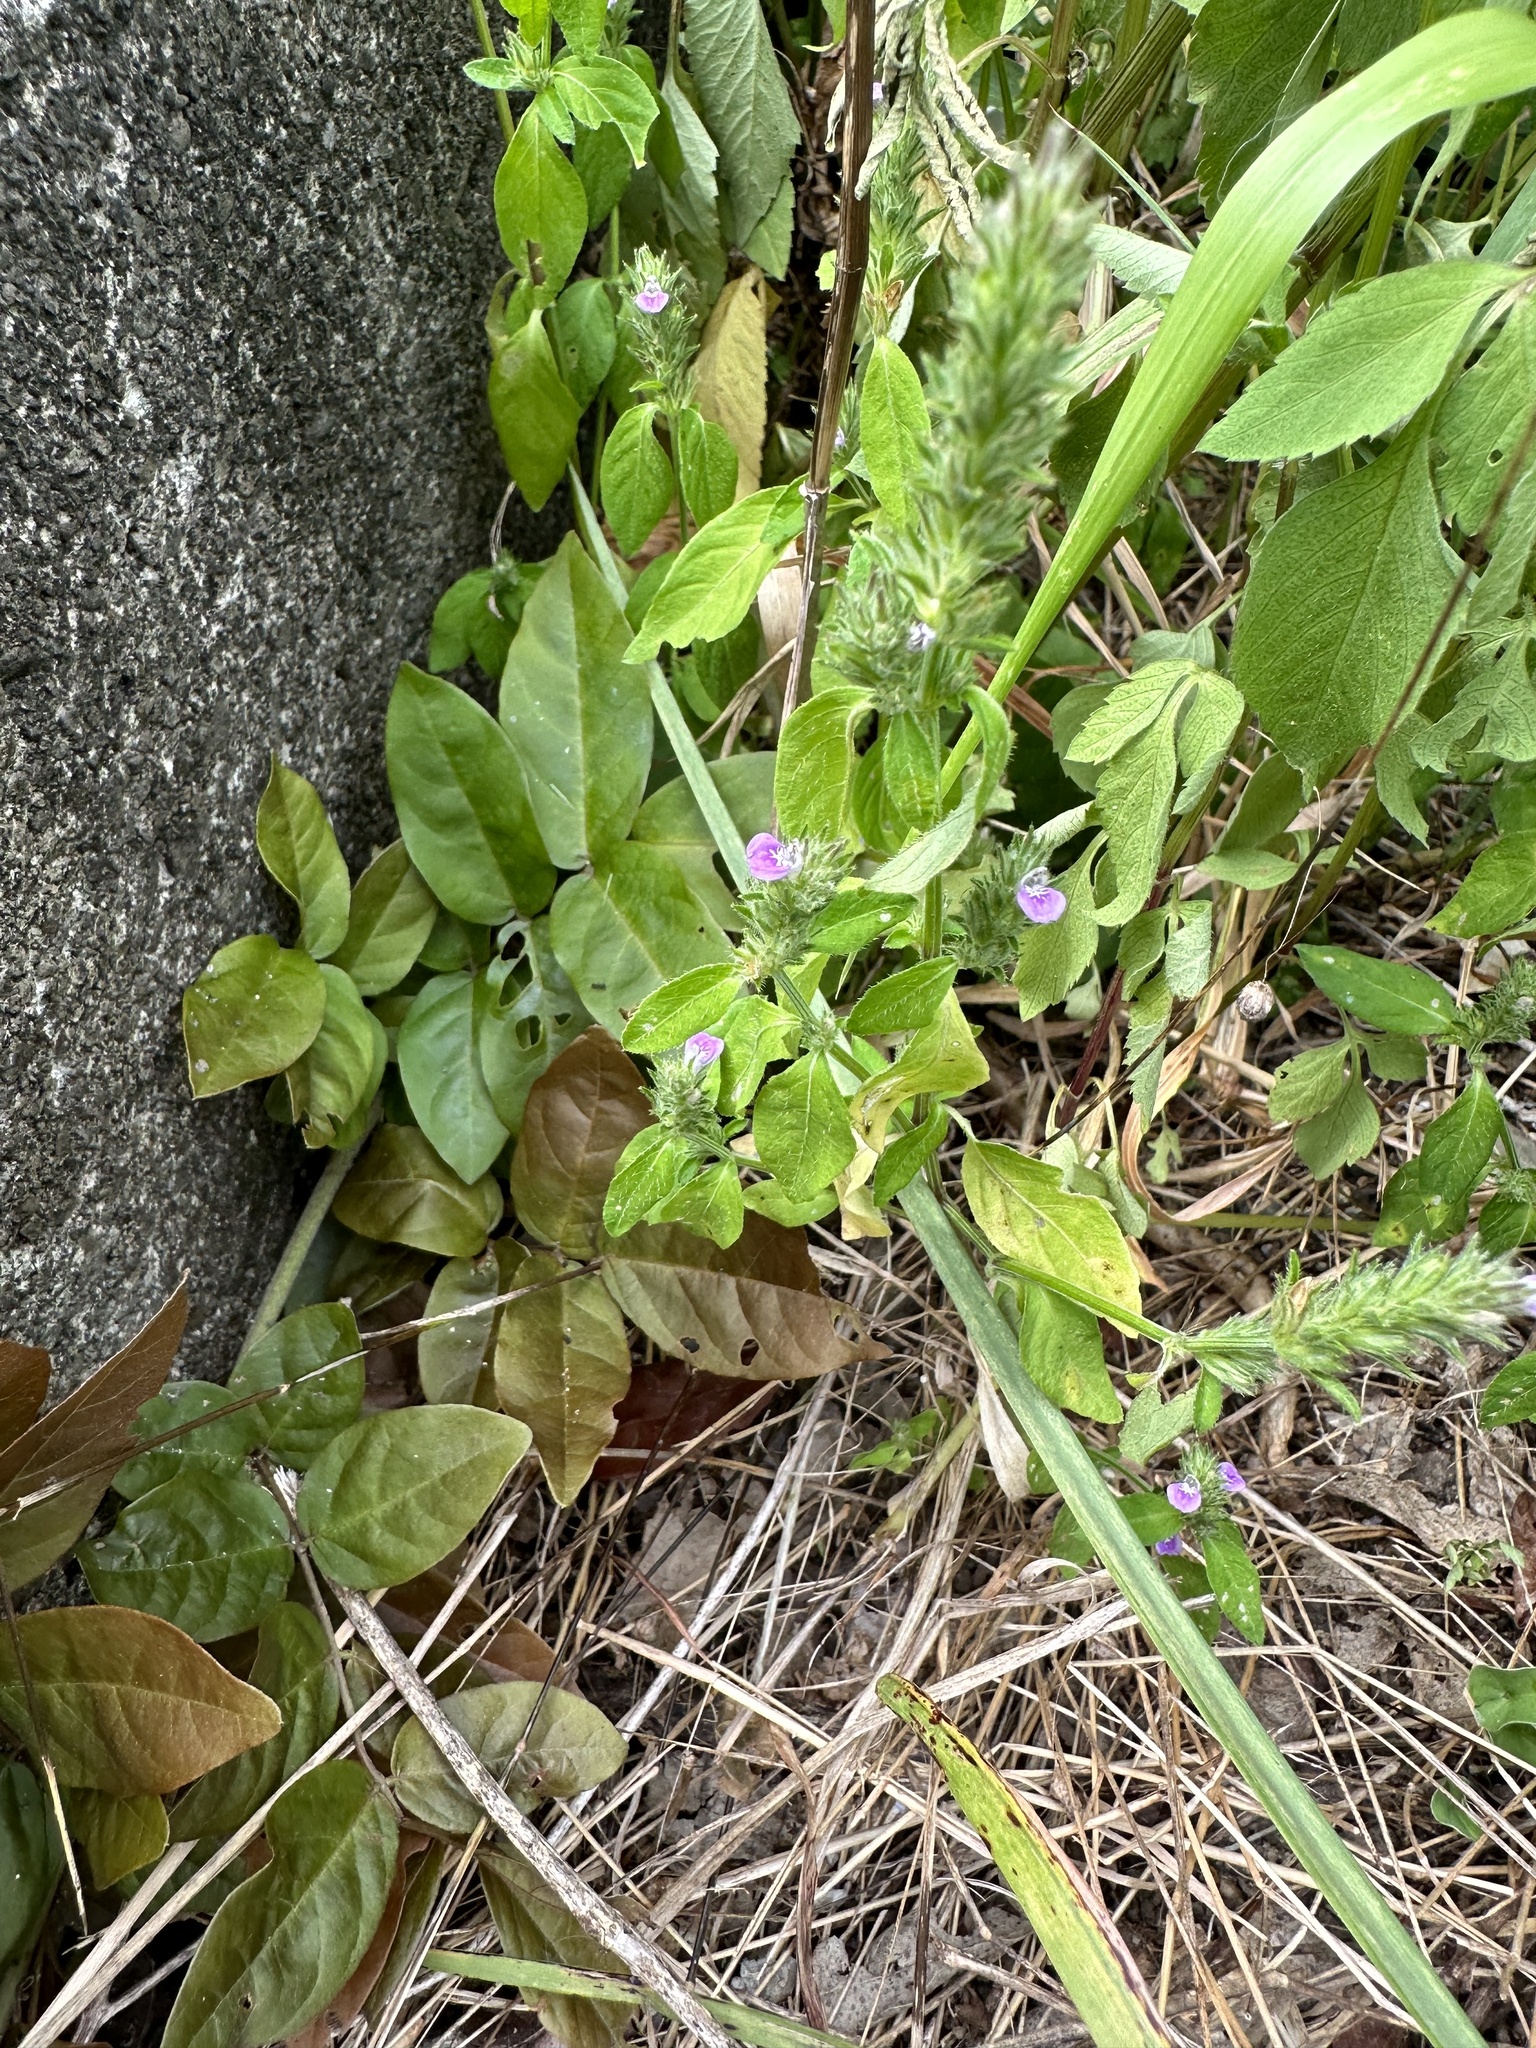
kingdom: Plantae
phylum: Tracheophyta
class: Magnoliopsida
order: Lamiales
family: Acanthaceae
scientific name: Acanthaceae
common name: Acanthaceae
